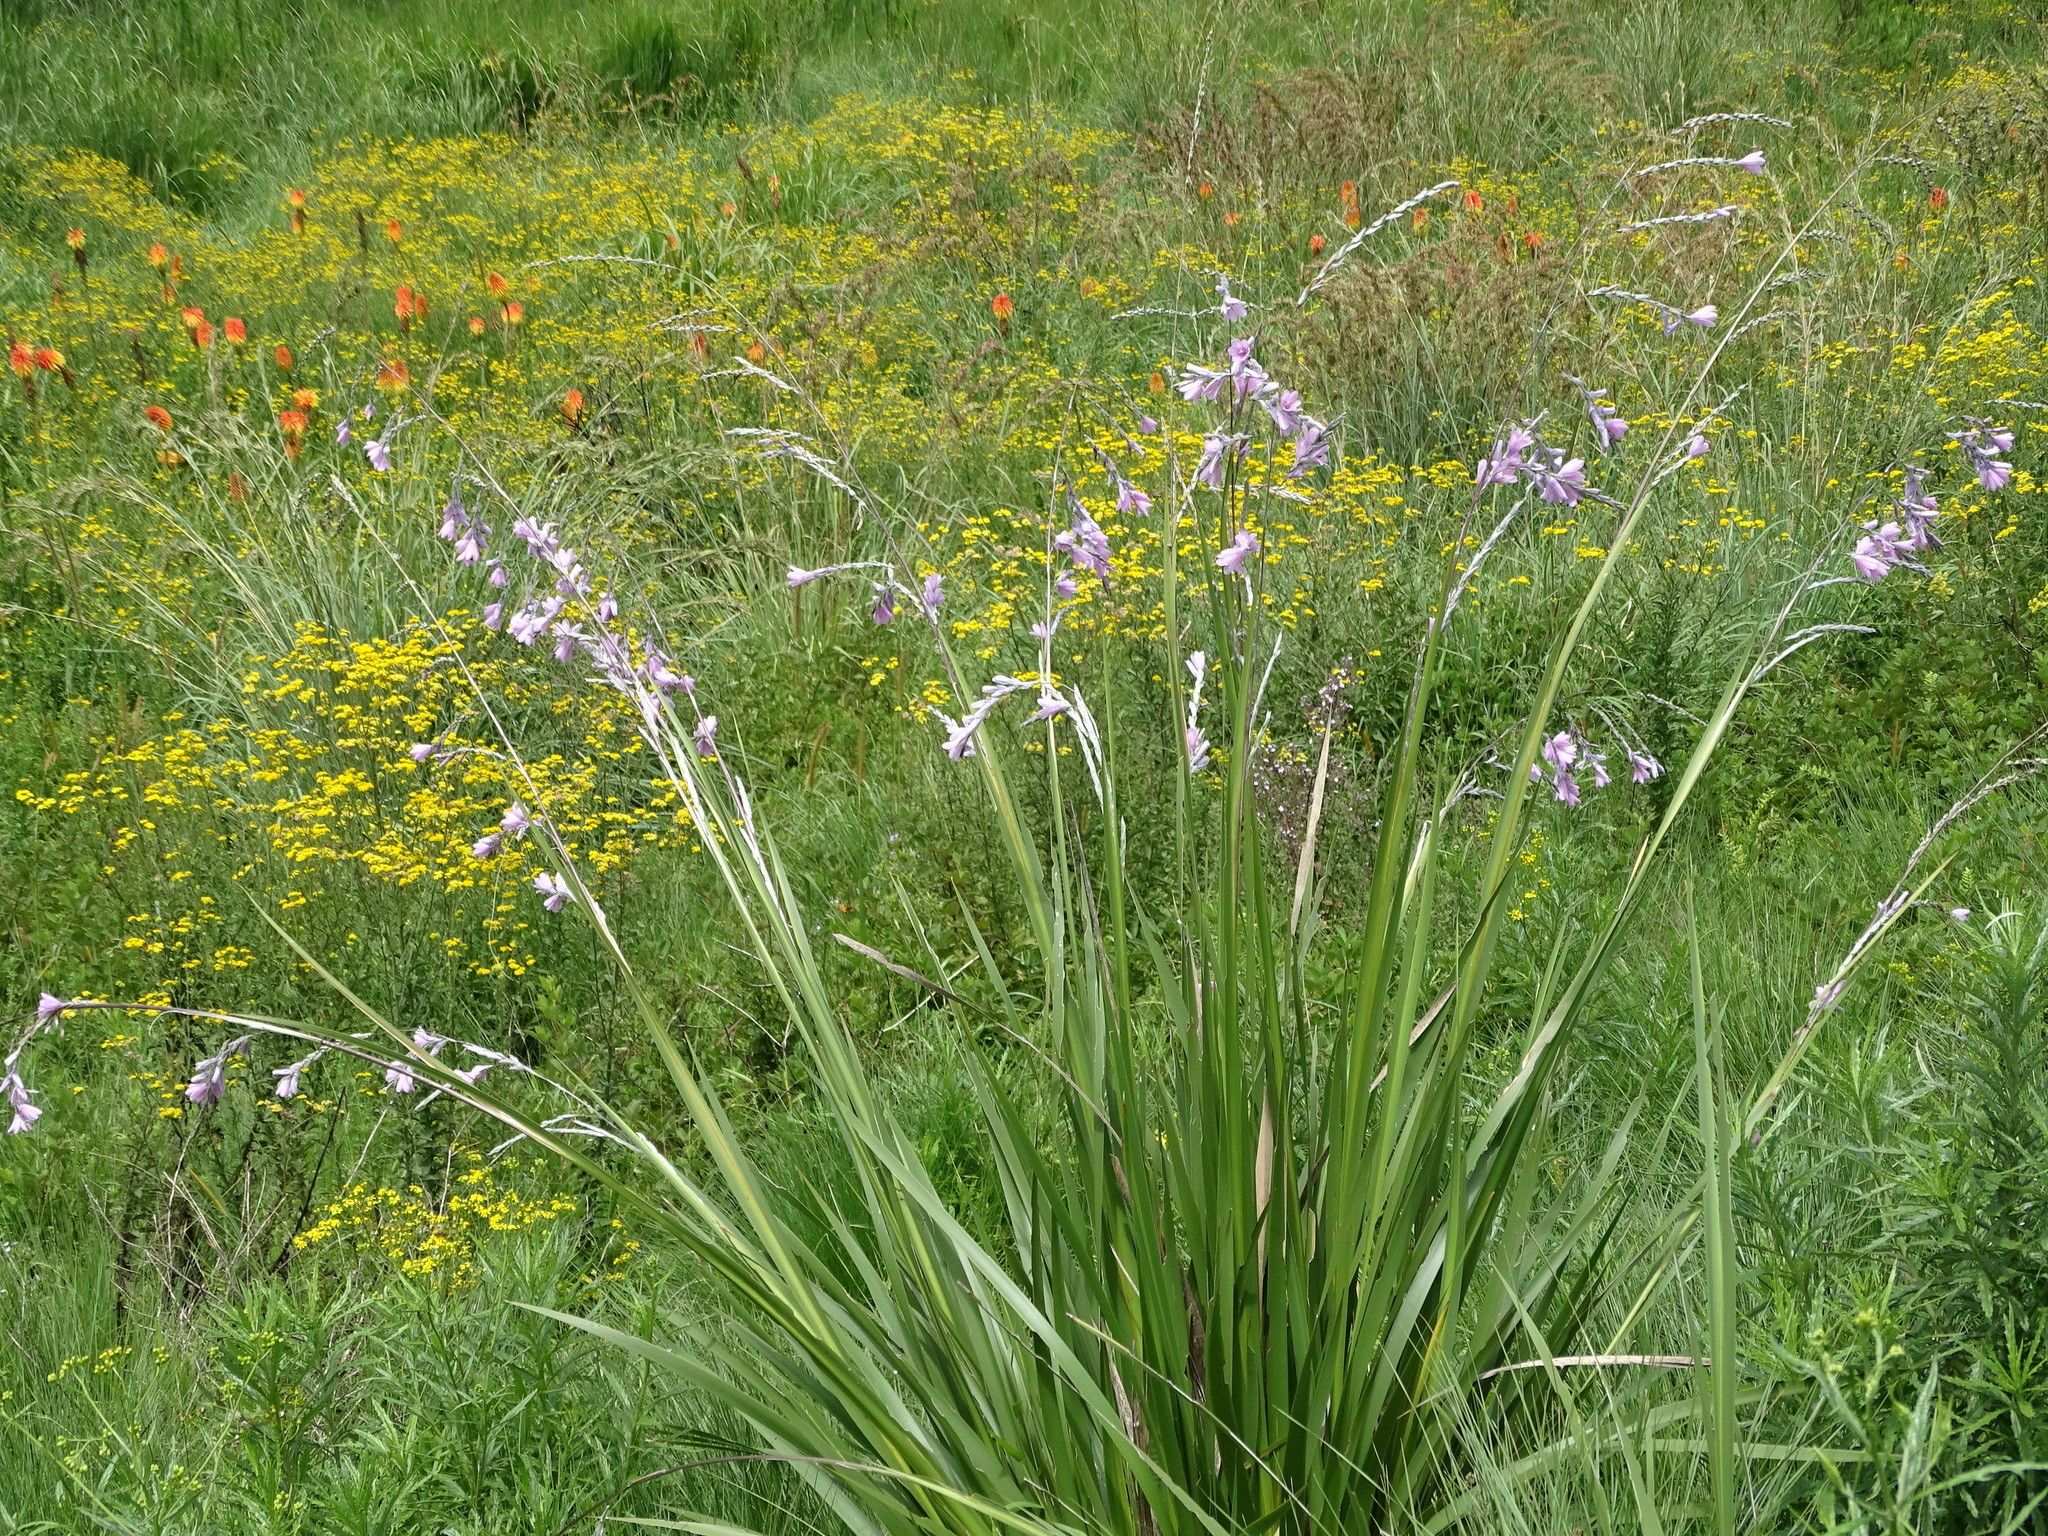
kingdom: Plantae
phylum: Tracheophyta
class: Liliopsida
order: Asparagales
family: Iridaceae
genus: Dierama
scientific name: Dierama latifolium
